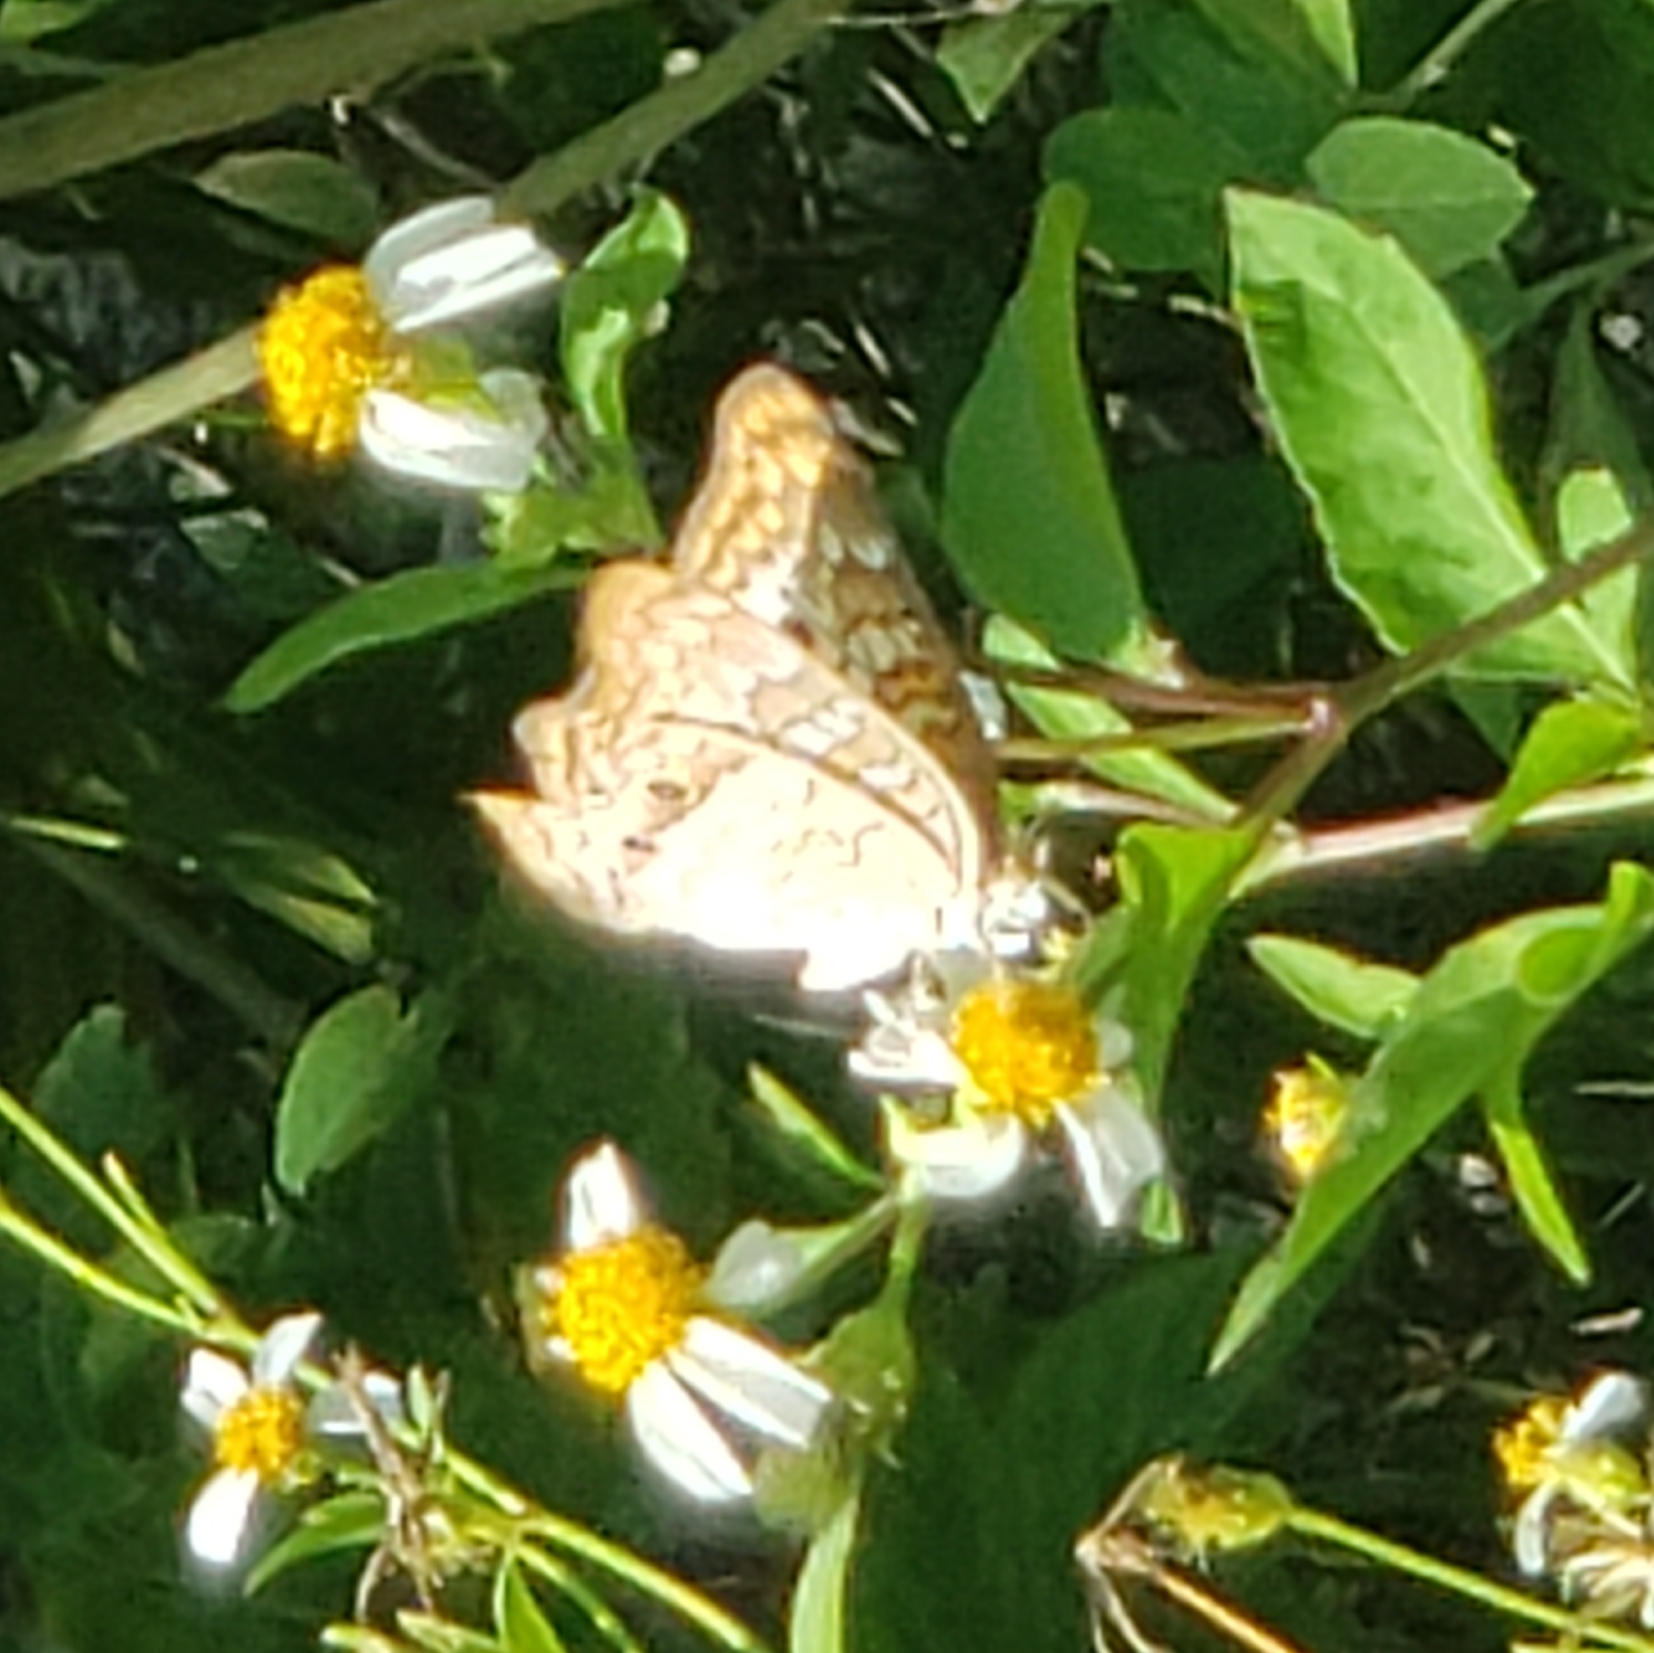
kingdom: Animalia
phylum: Arthropoda
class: Insecta
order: Lepidoptera
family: Nymphalidae
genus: Anartia
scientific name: Anartia jatrophae
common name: White peacock
